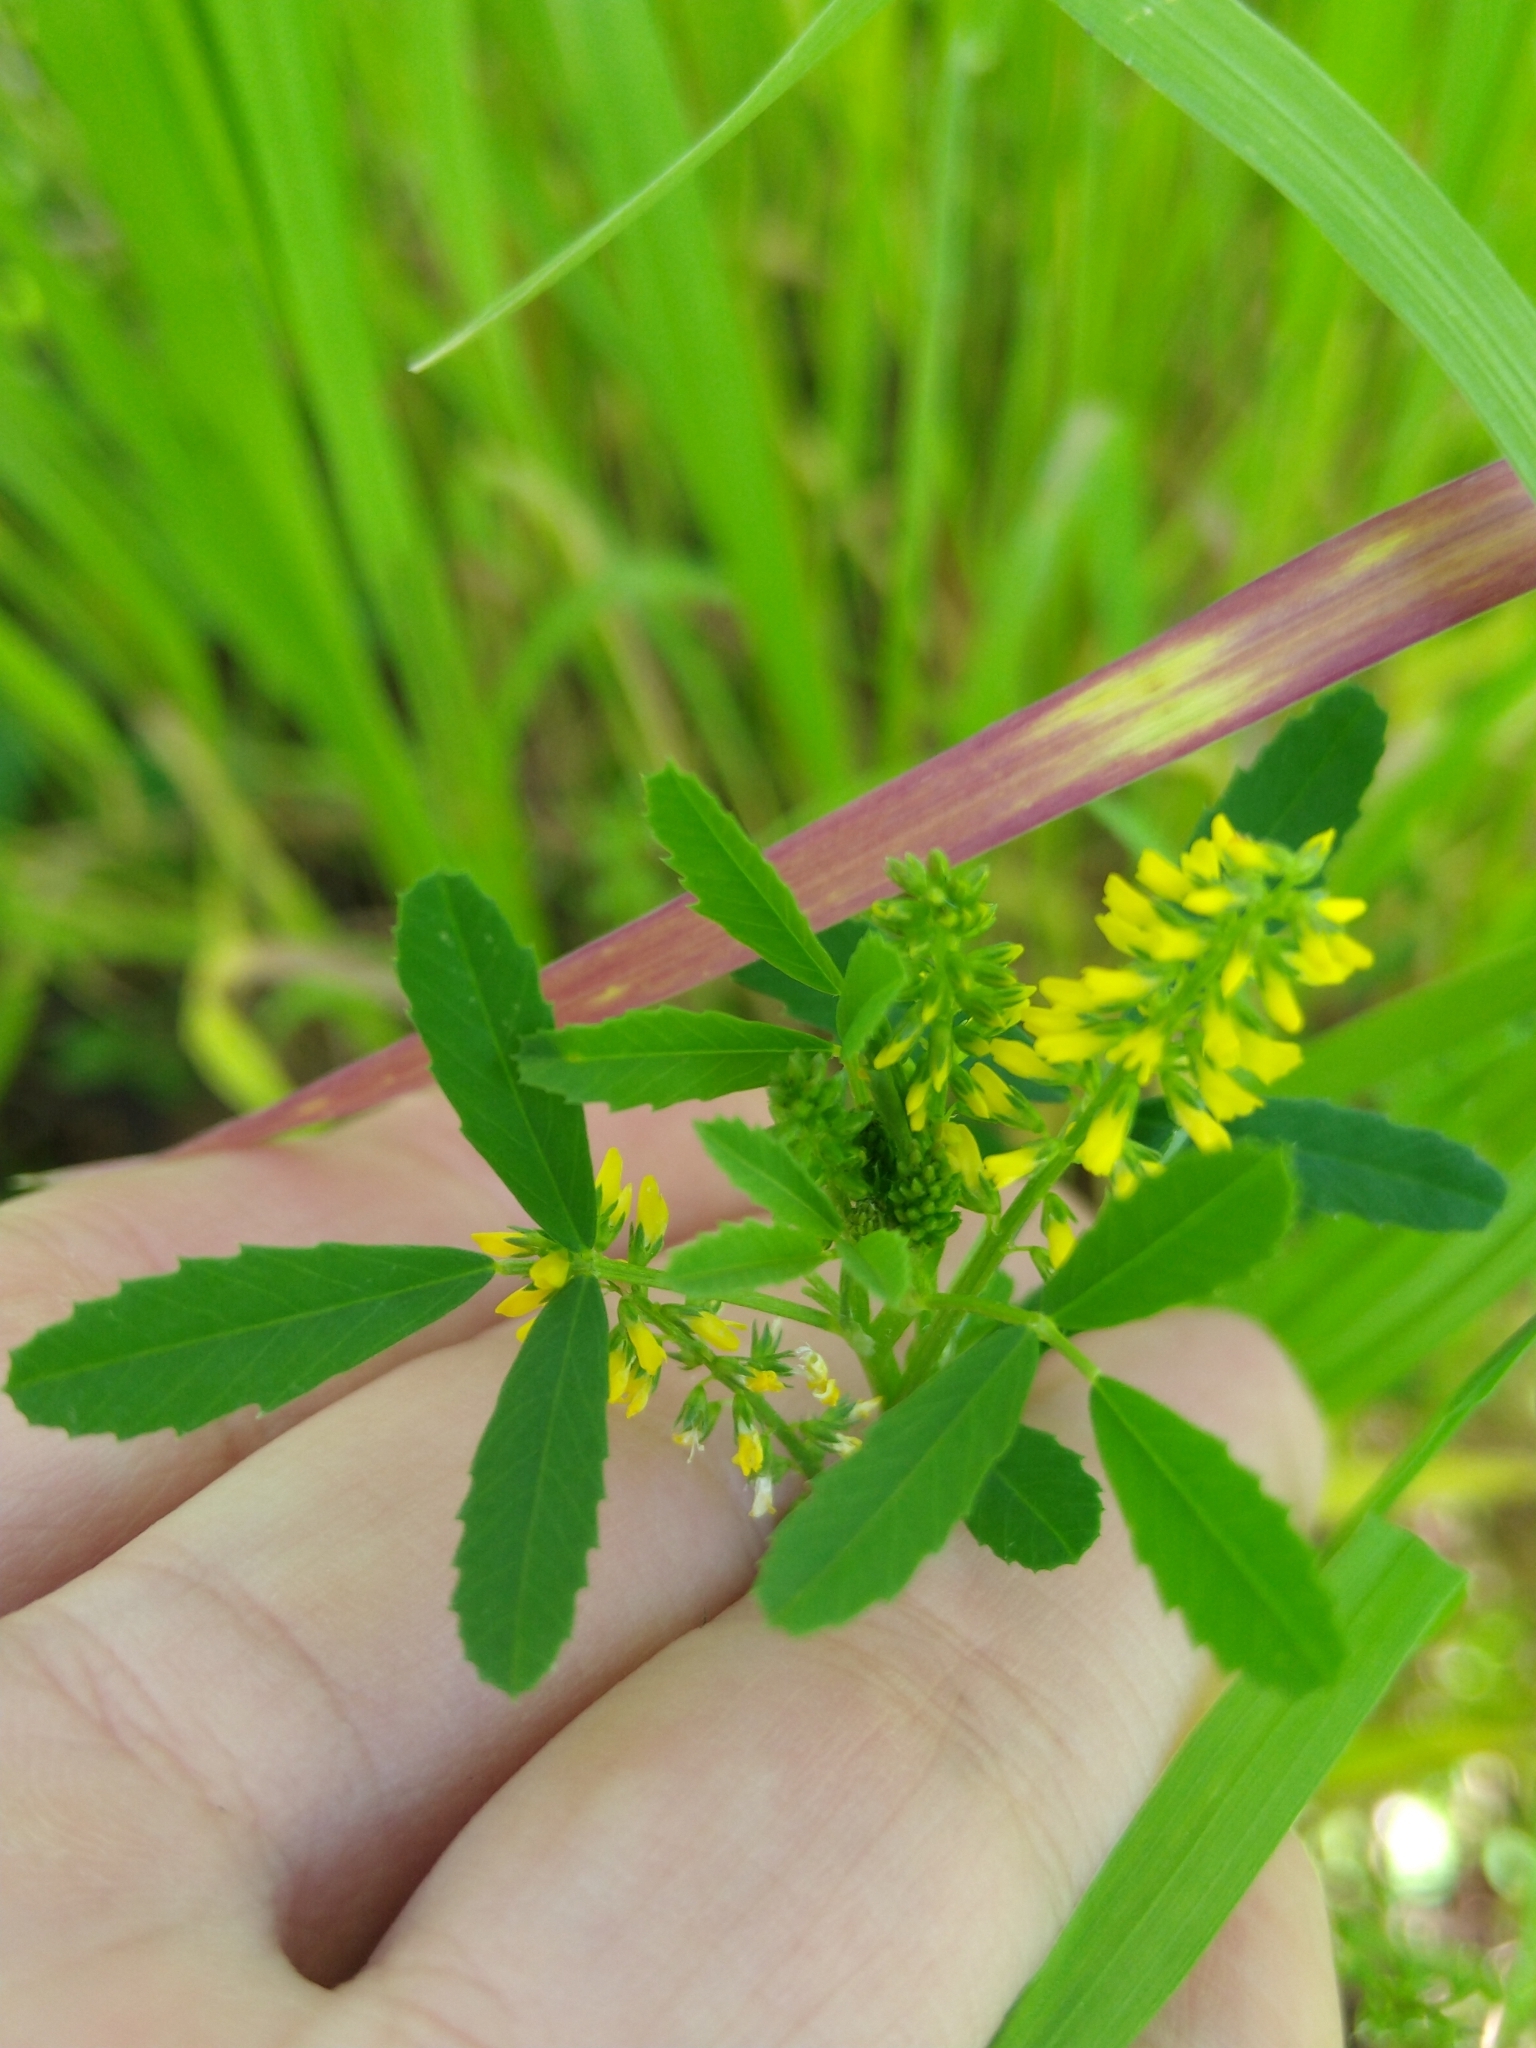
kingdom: Plantae
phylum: Tracheophyta
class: Magnoliopsida
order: Fabales
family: Fabaceae
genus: Melilotus
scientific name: Melilotus indicus
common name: Small melilot
